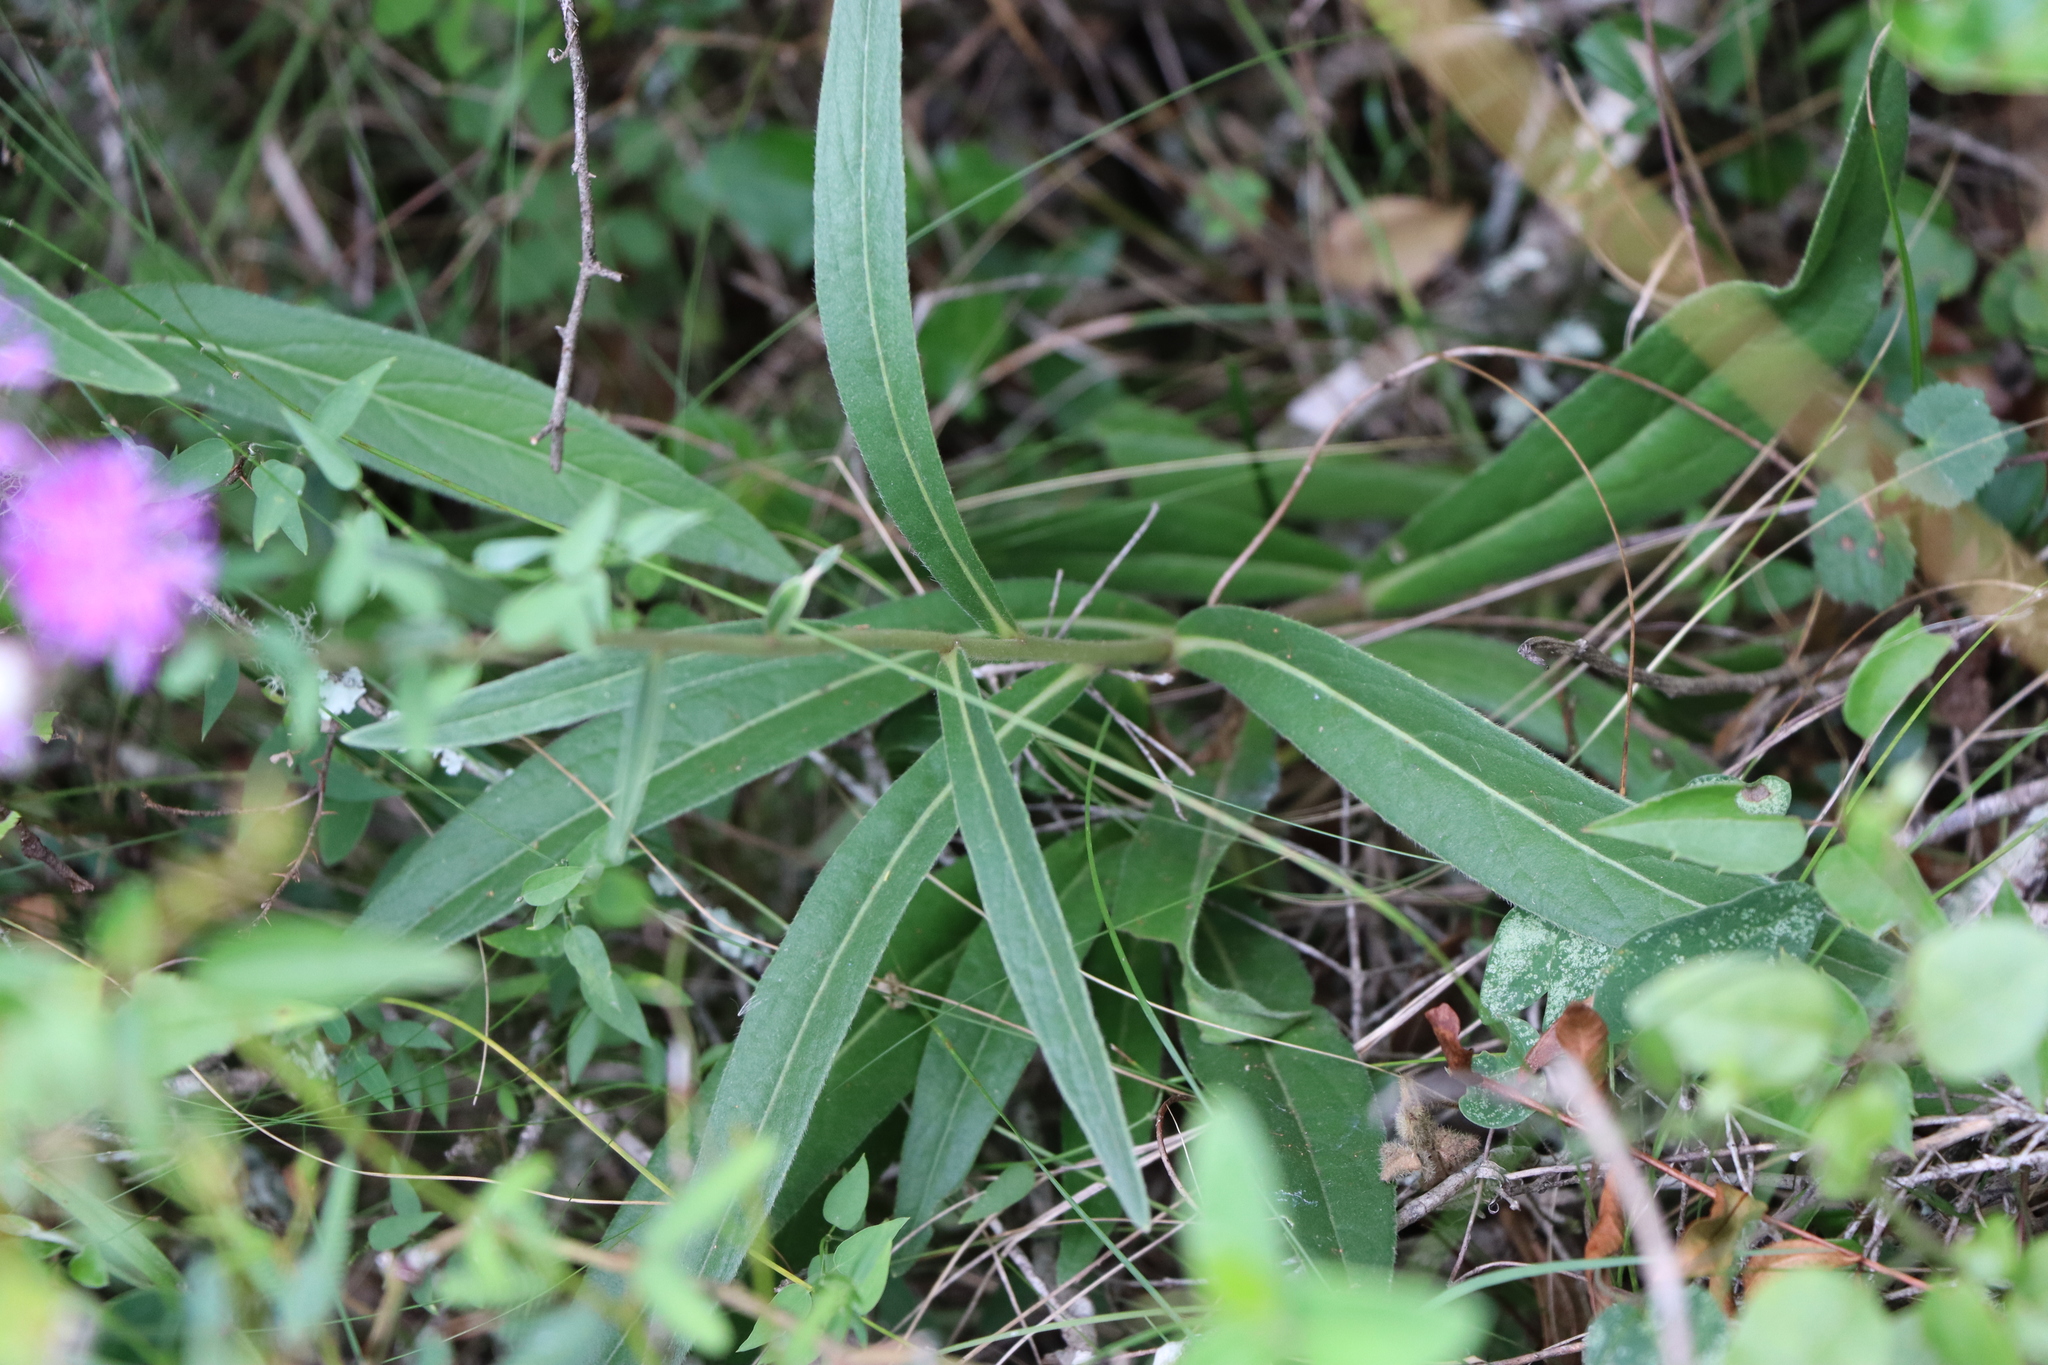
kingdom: Plantae
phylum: Tracheophyta
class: Magnoliopsida
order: Asterales
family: Asteraceae
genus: Chrysolaena
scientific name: Chrysolaena flexuosa
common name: Zig-zag vernonia
